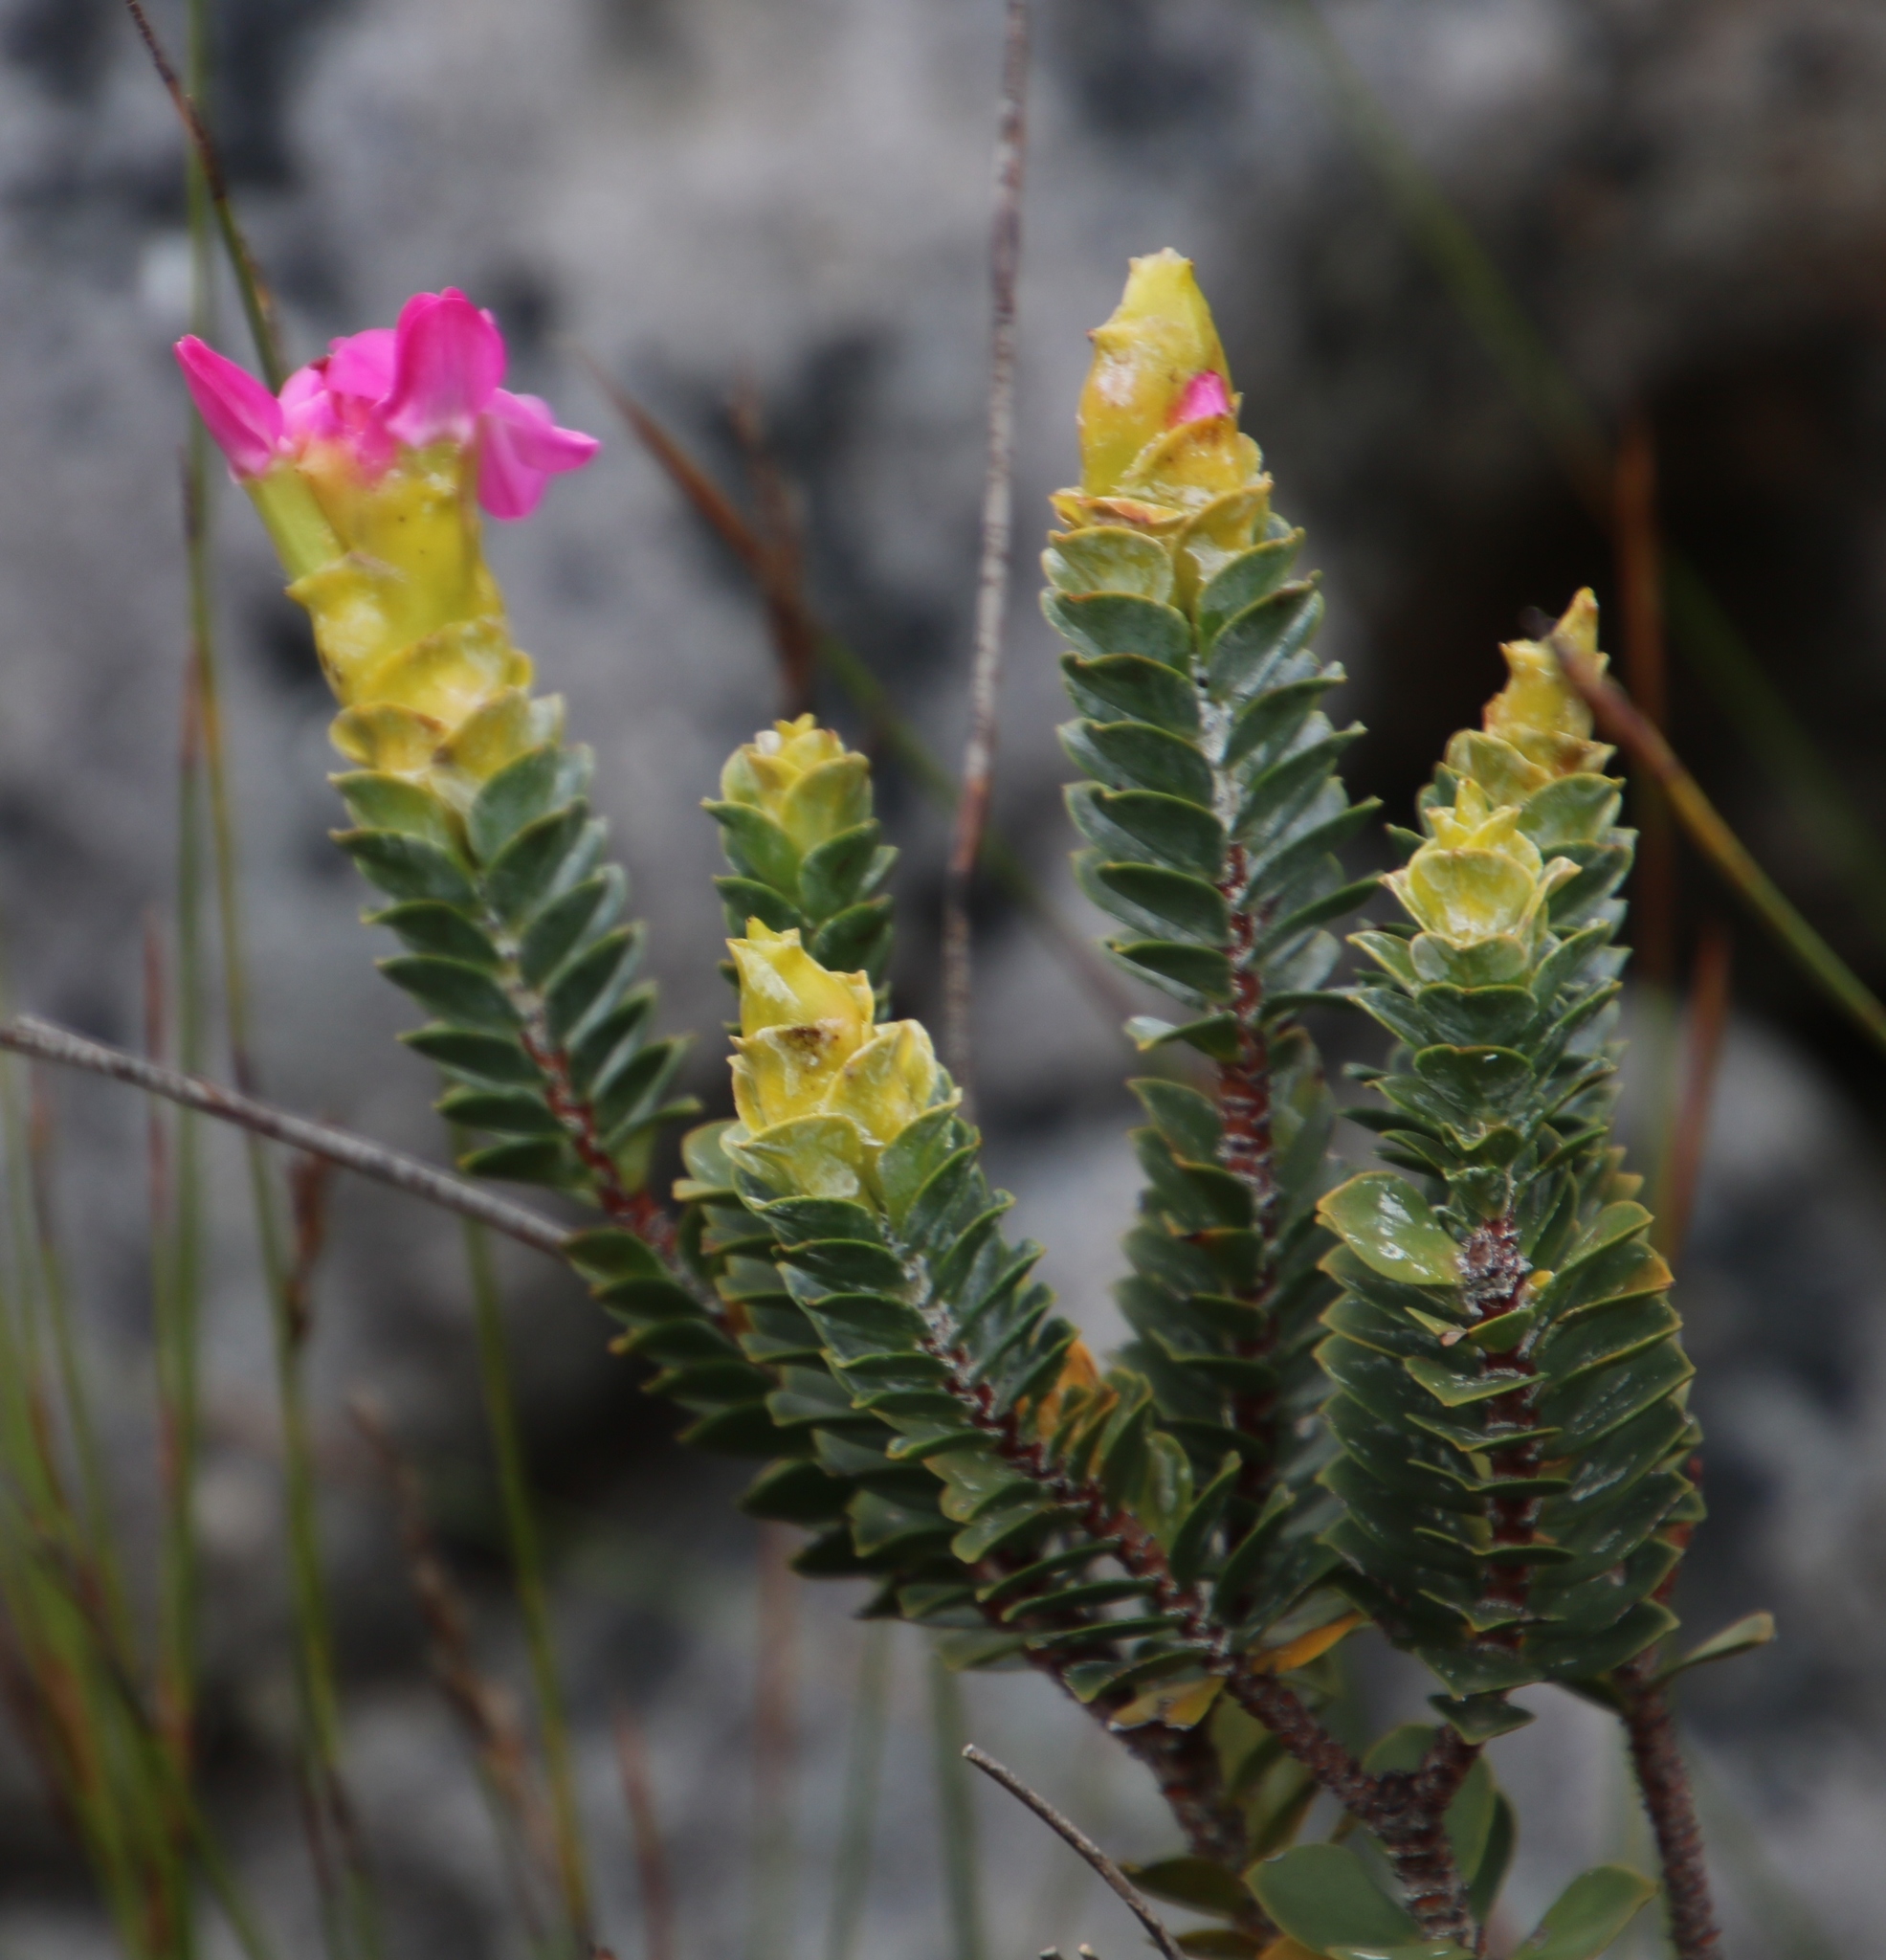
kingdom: Plantae
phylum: Tracheophyta
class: Magnoliopsida
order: Myrtales
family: Penaeaceae
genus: Saltera
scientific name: Saltera sarcocolla
